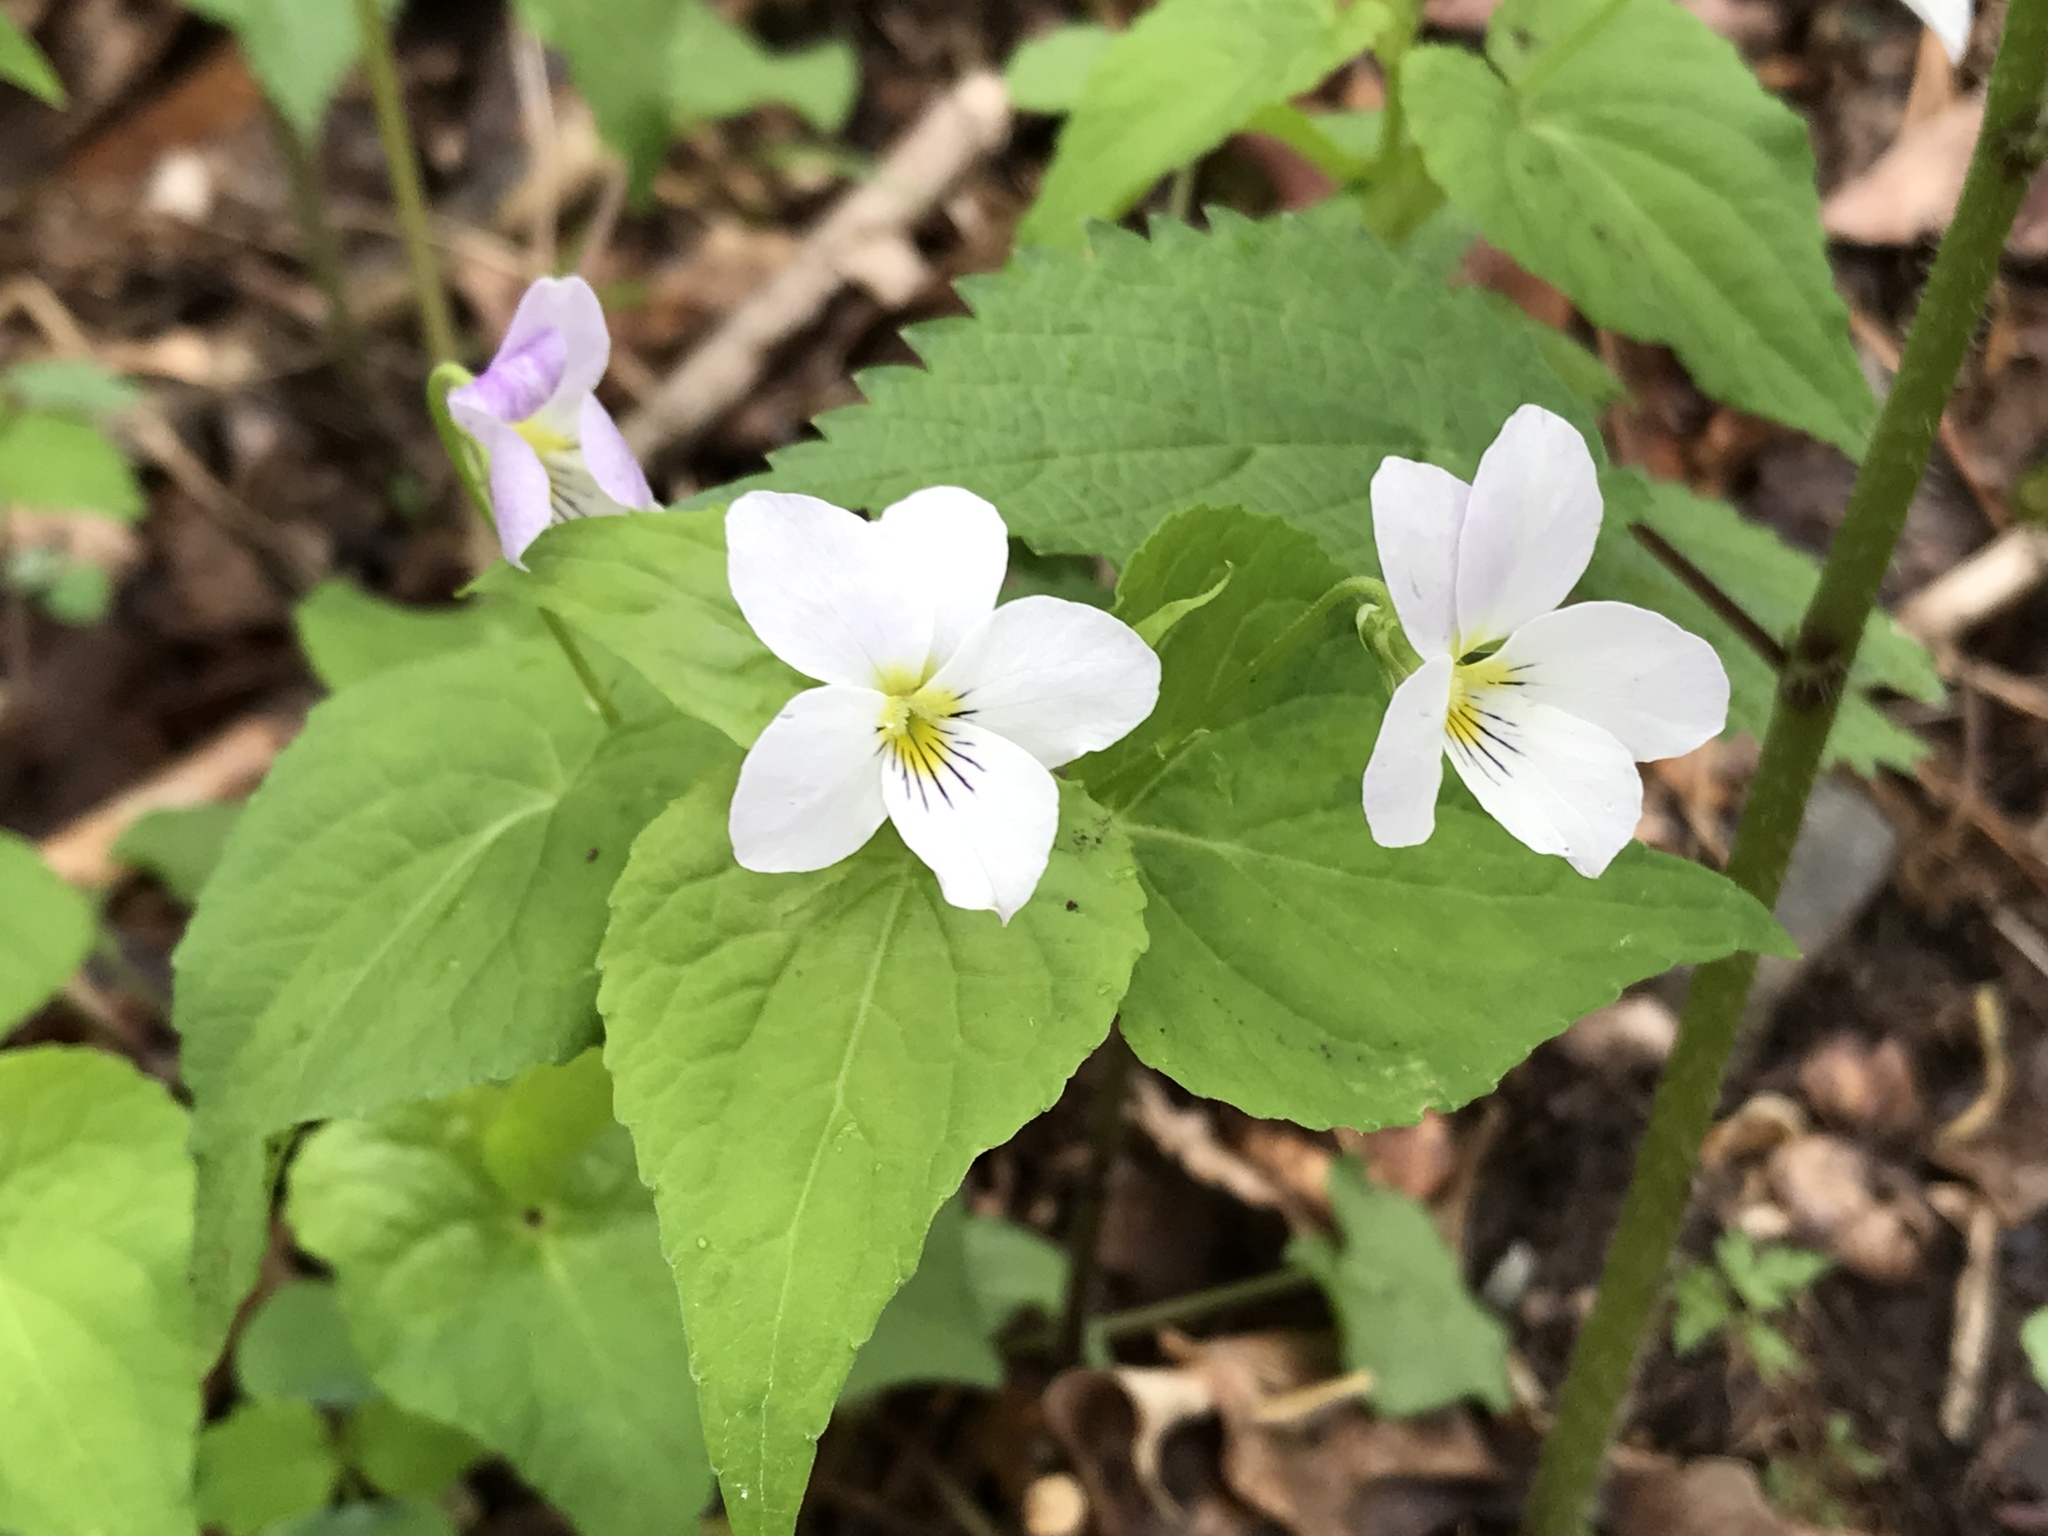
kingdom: Plantae
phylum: Tracheophyta
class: Magnoliopsida
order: Malpighiales
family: Violaceae
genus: Viola
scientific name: Viola canadensis
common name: Canada violet
